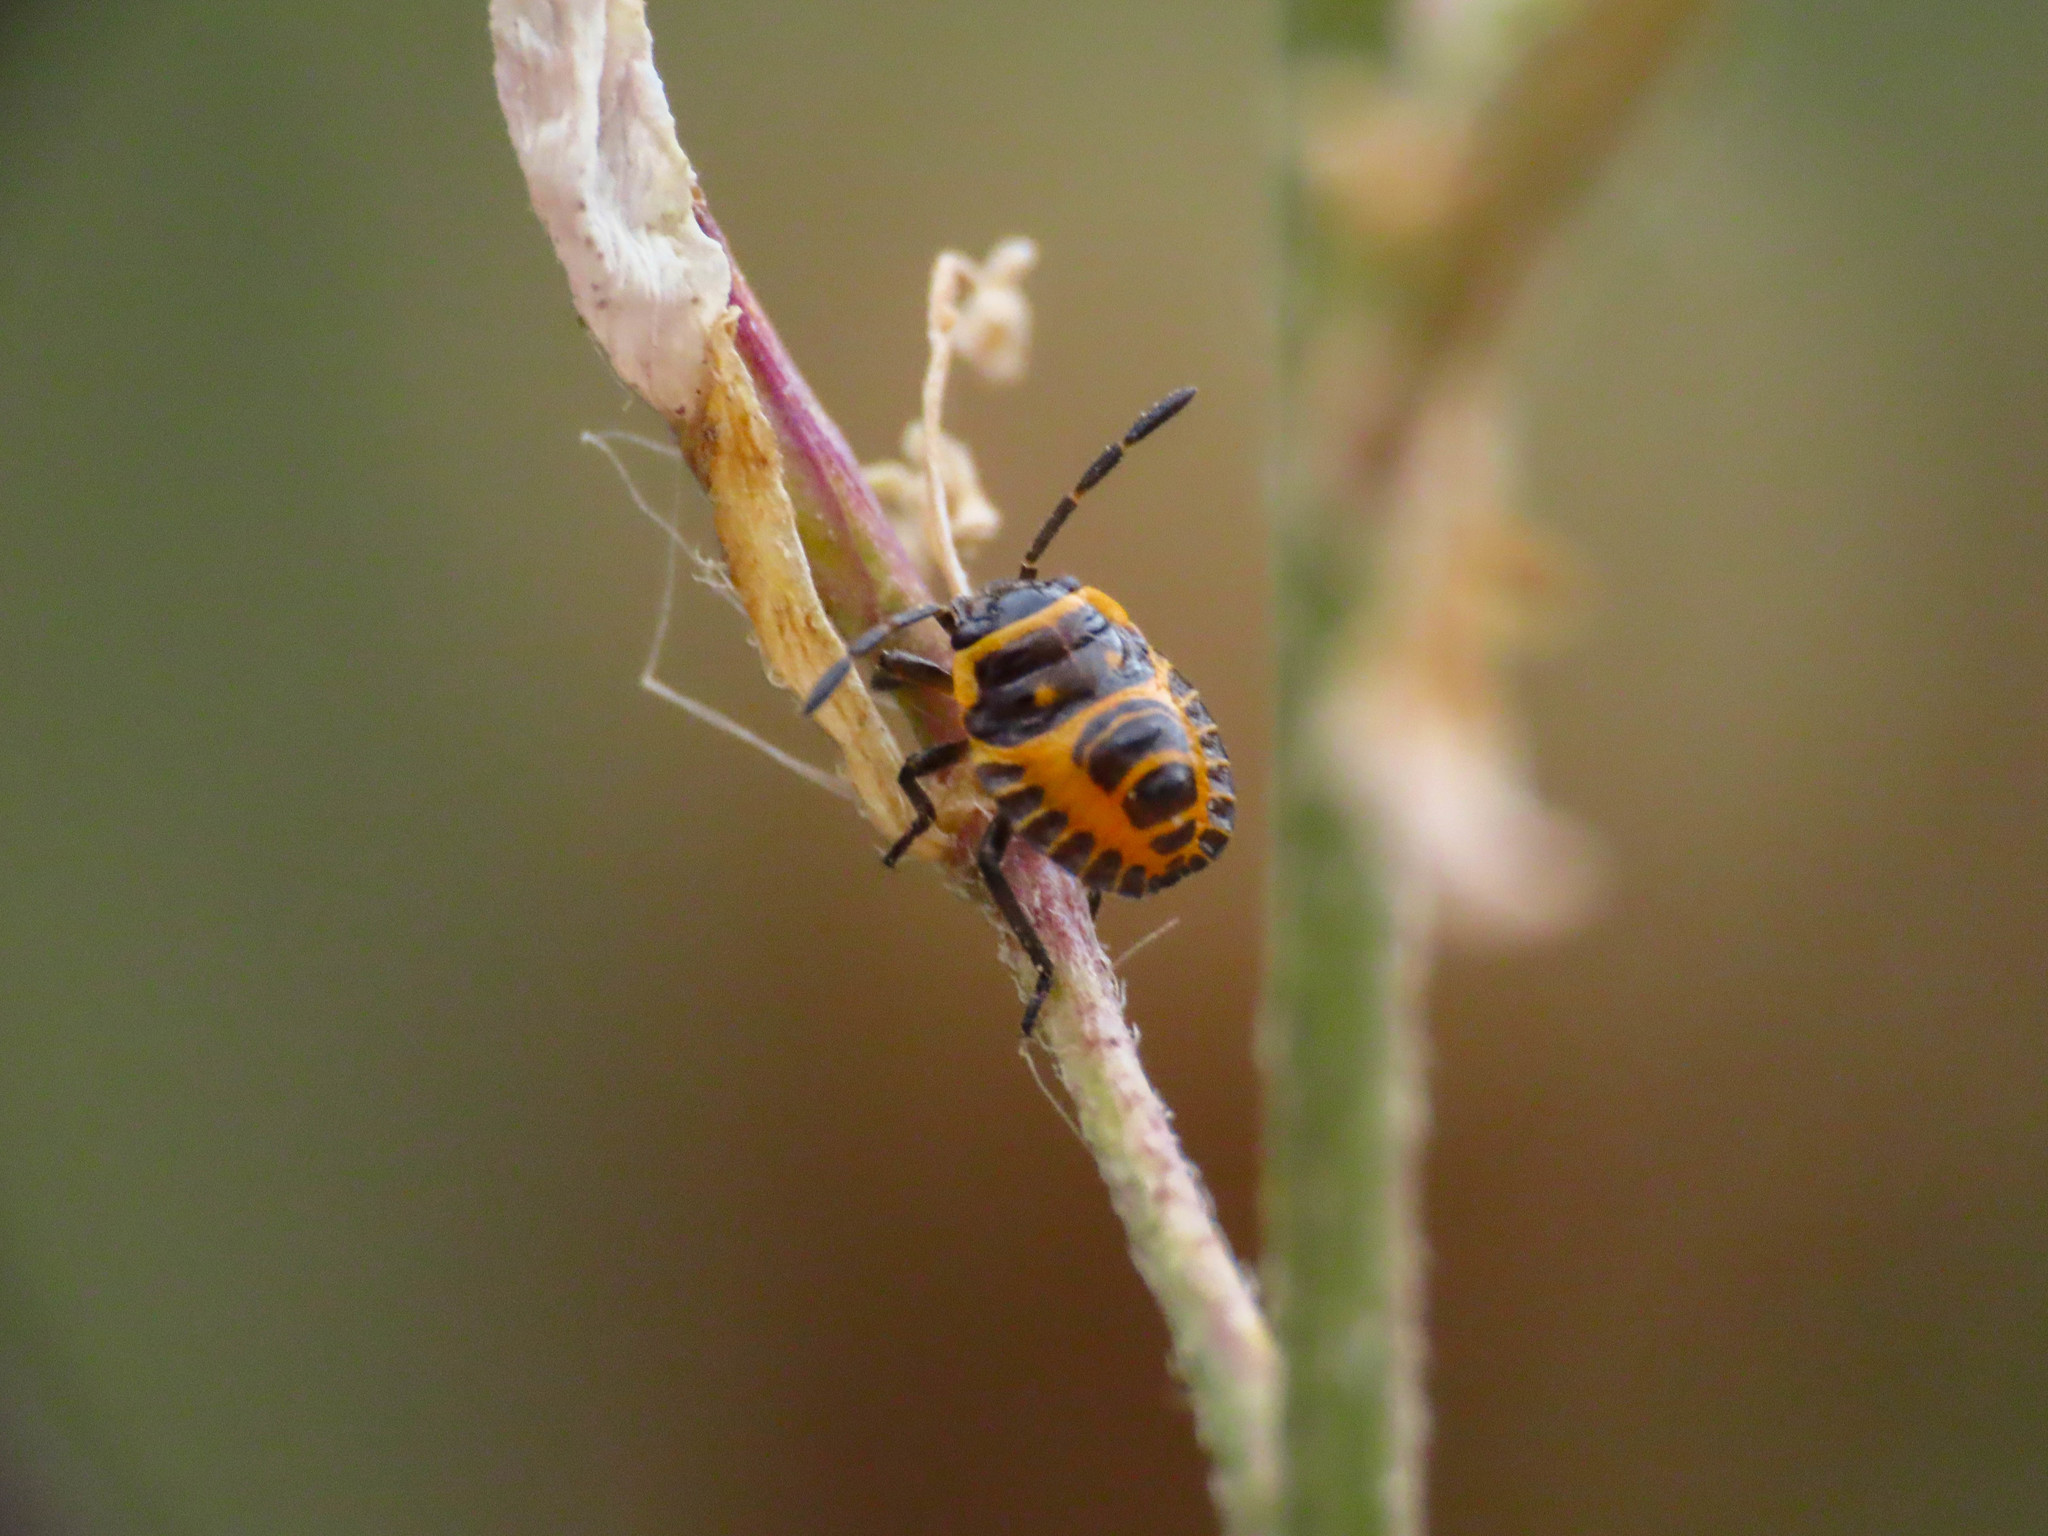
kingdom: Animalia
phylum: Arthropoda
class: Insecta
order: Hemiptera
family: Pentatomidae
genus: Eurydema
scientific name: Eurydema ventralis
